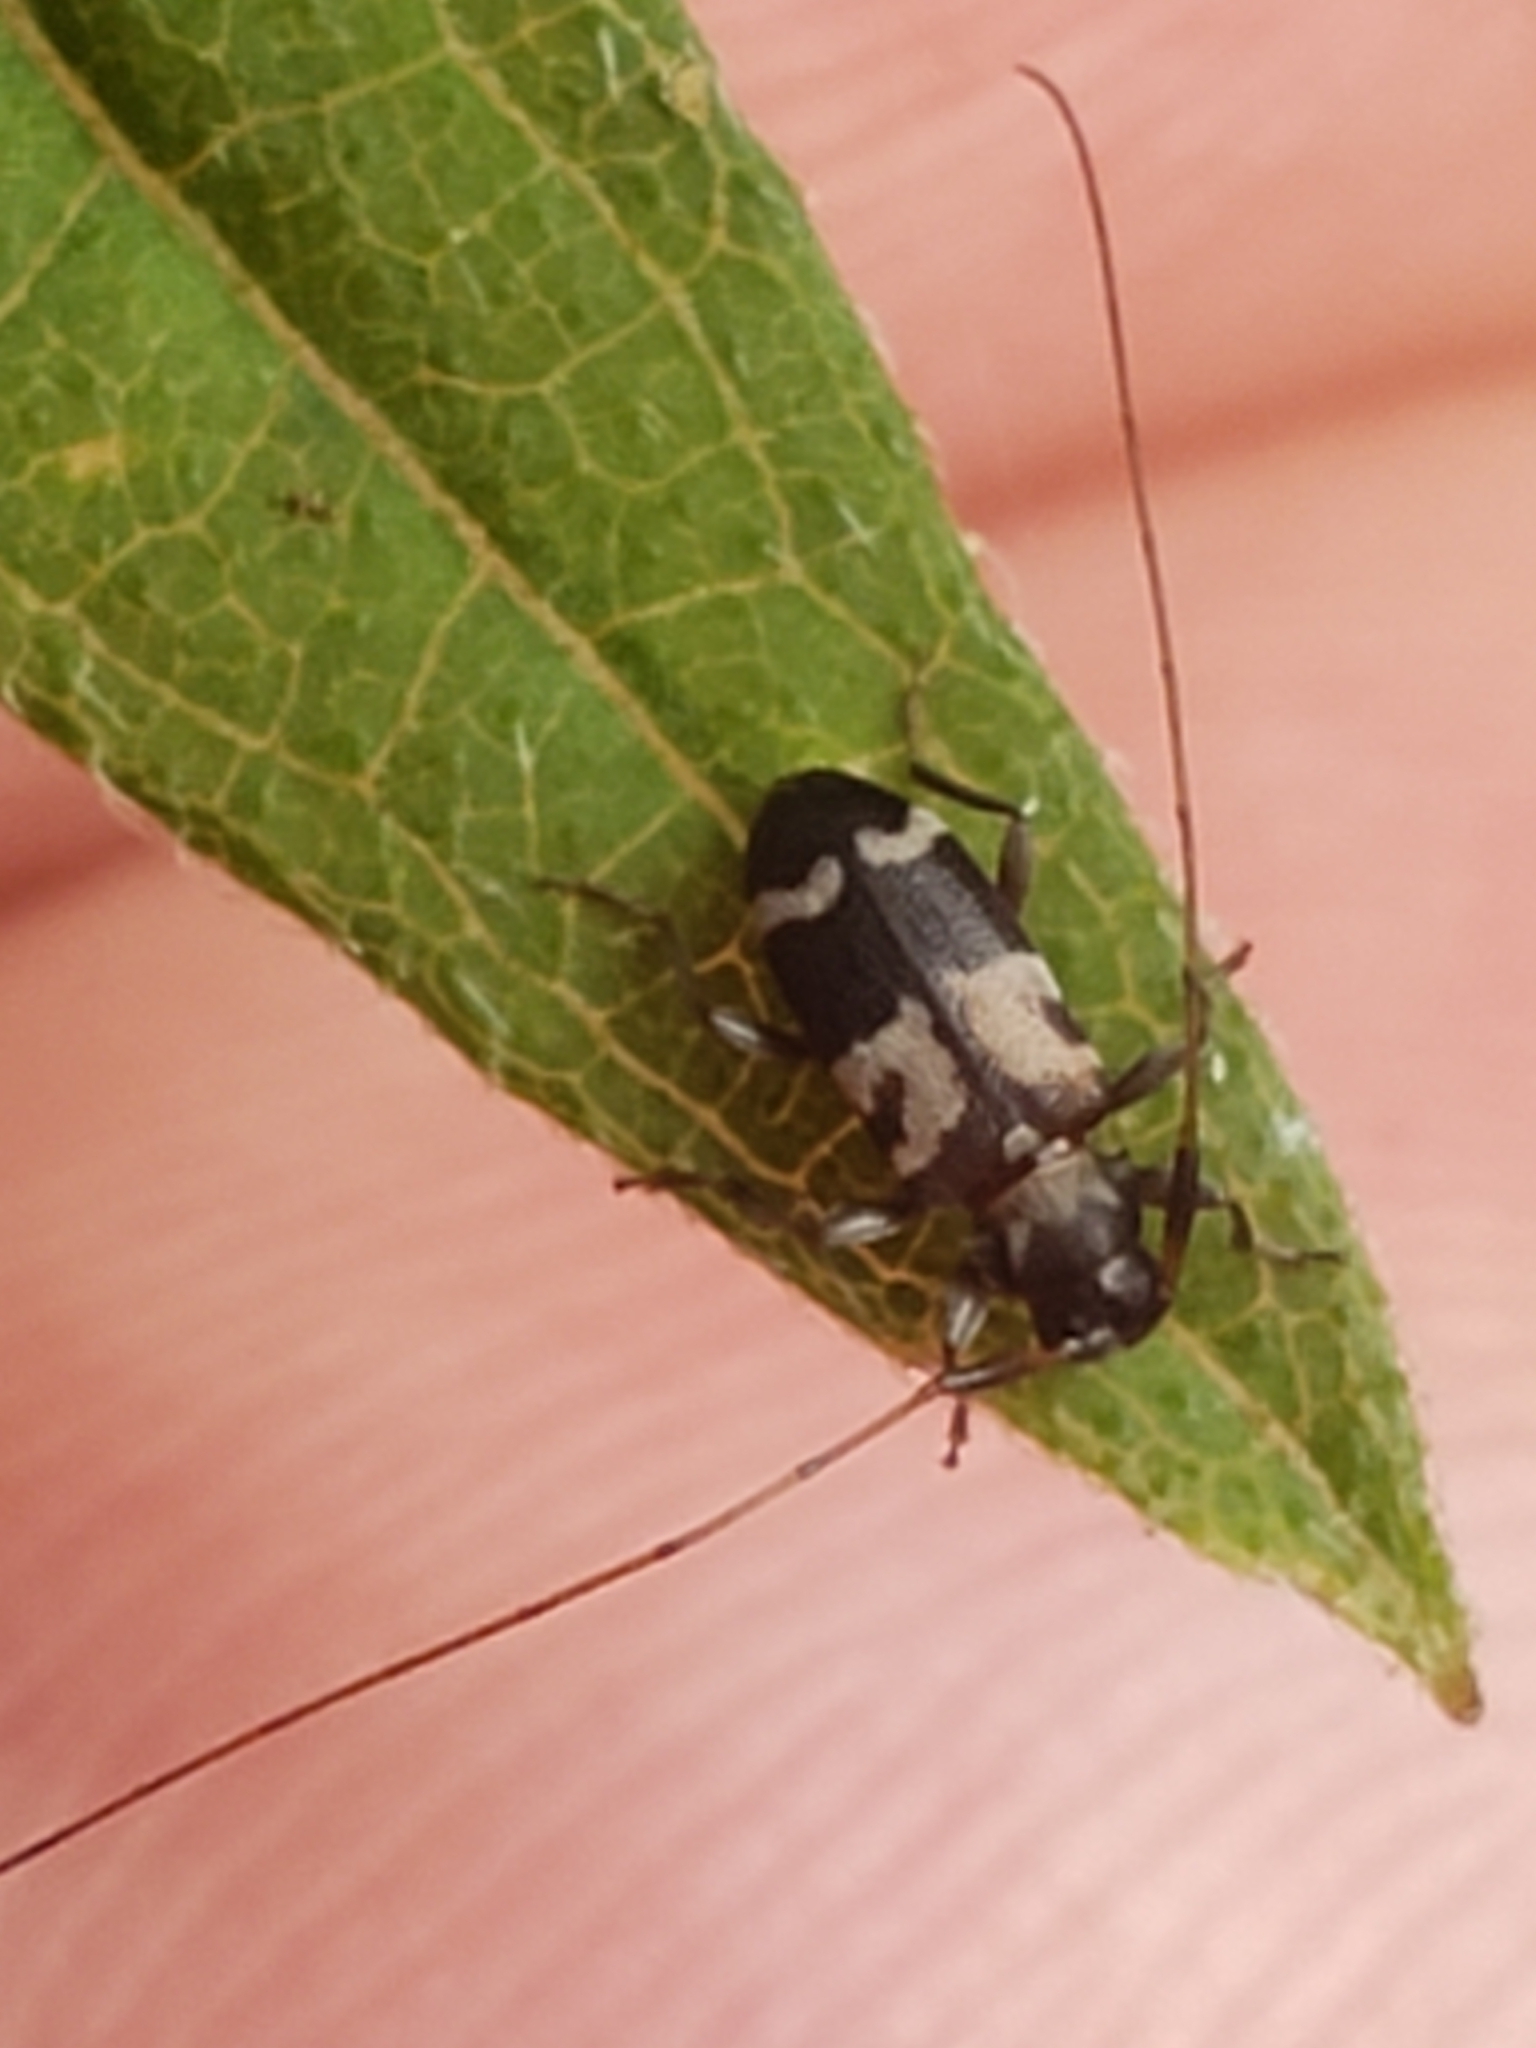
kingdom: Animalia
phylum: Arthropoda
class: Insecta
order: Coleoptera
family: Cerambycidae
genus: Urgleptes
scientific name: Urgleptes facetus
